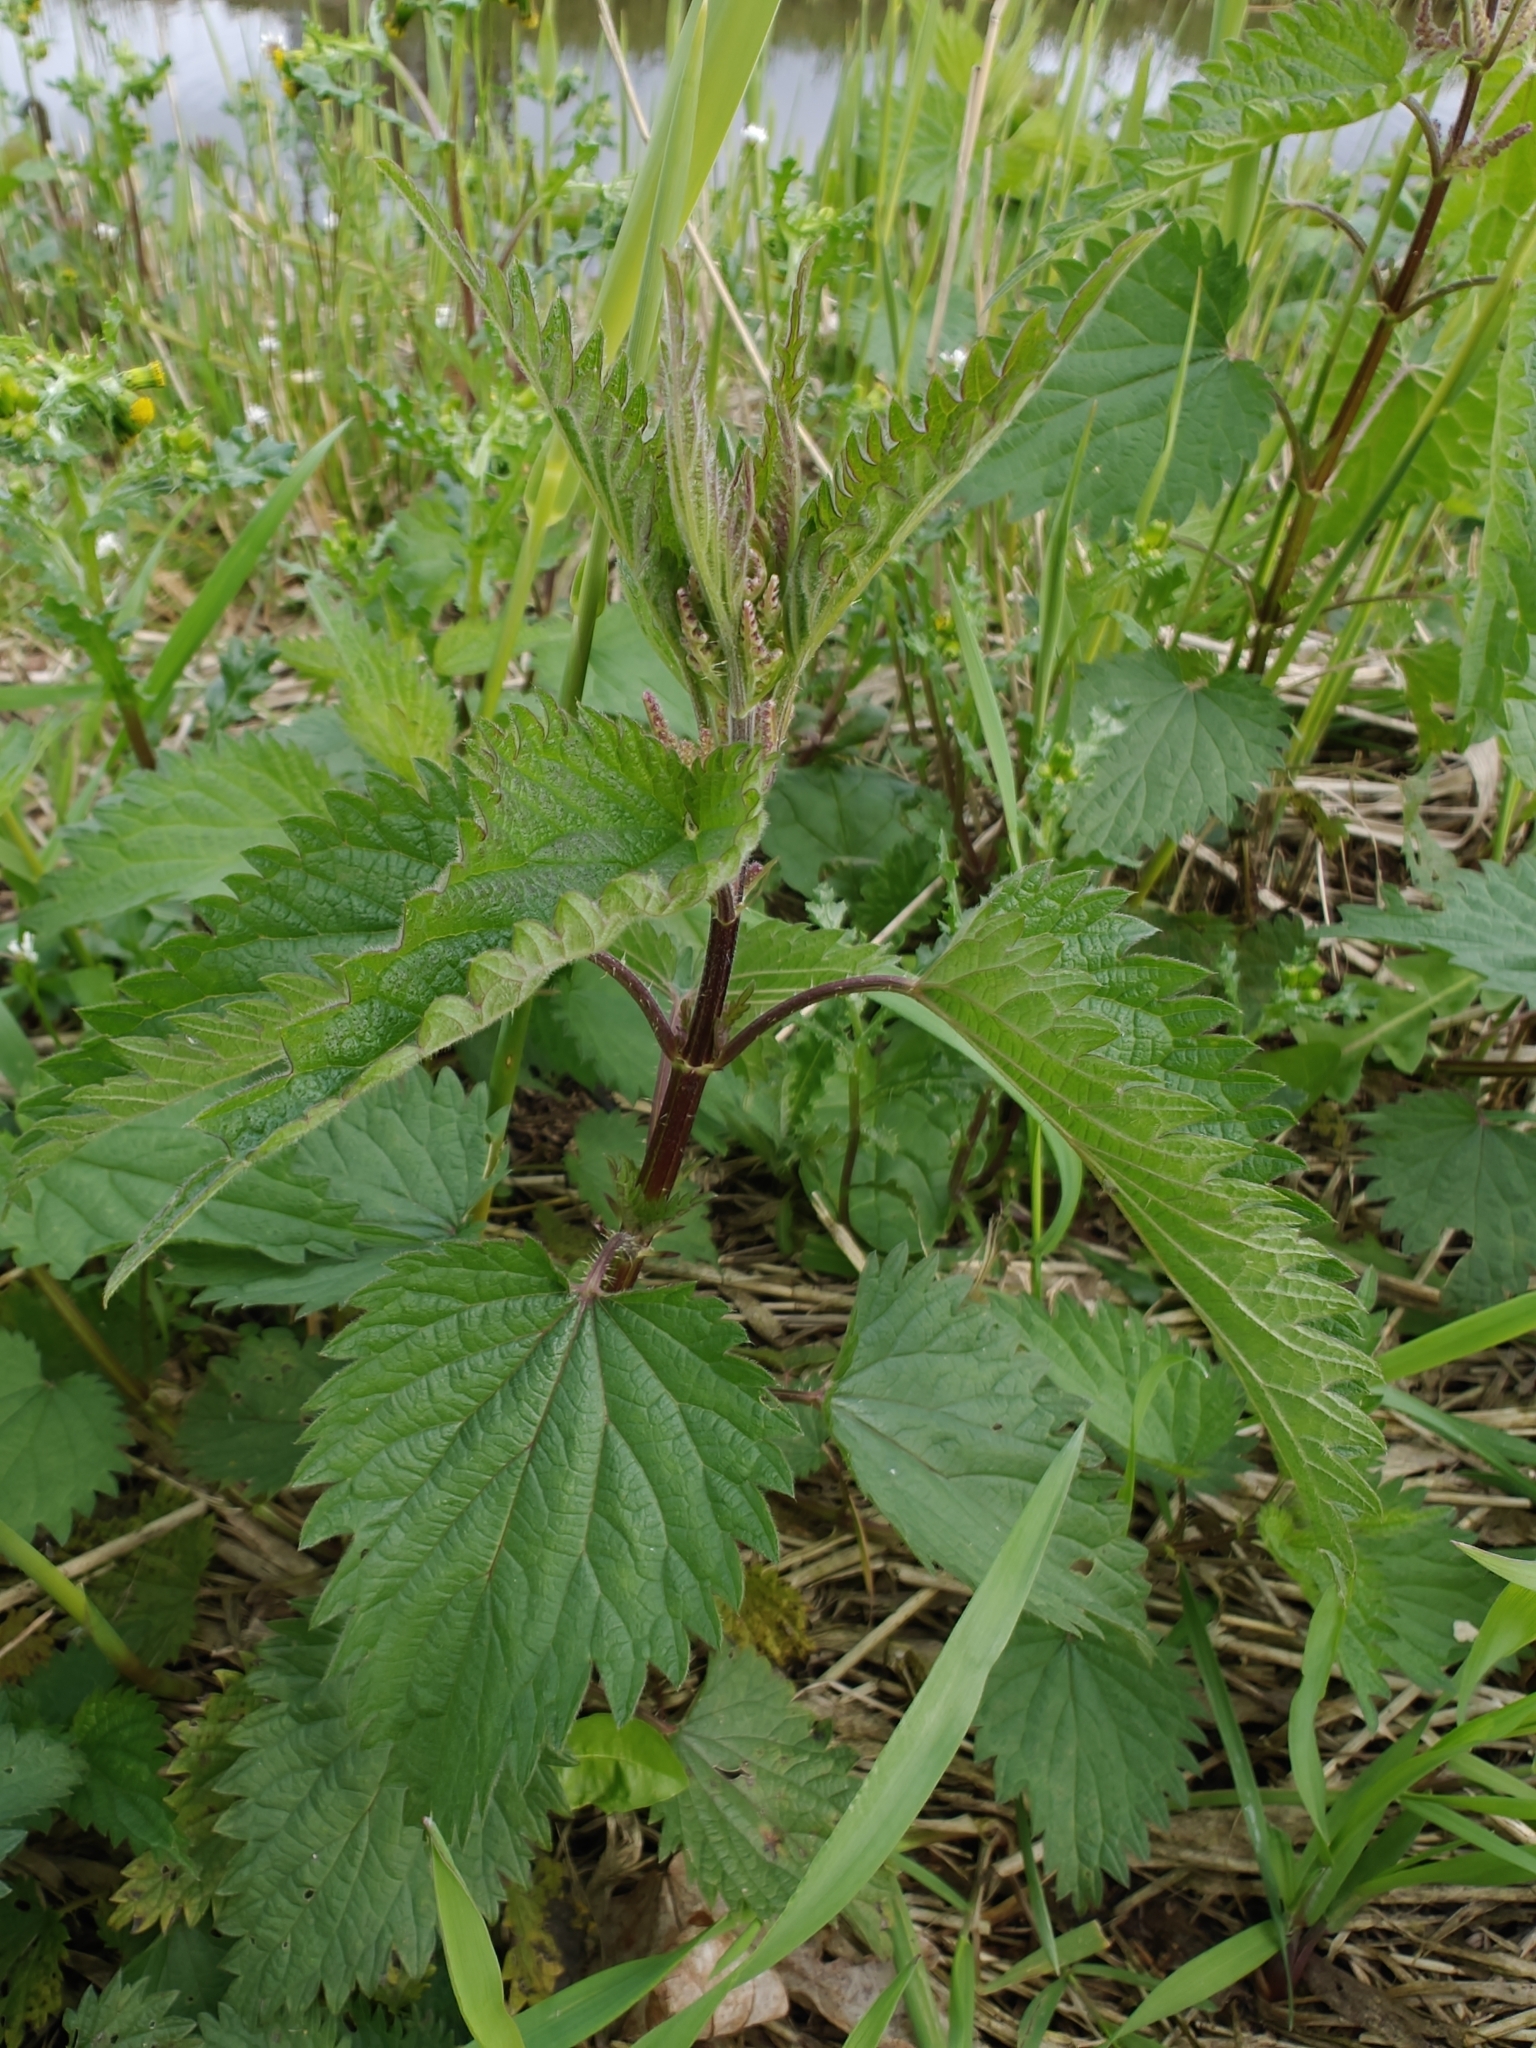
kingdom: Plantae
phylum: Tracheophyta
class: Magnoliopsida
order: Rosales
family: Urticaceae
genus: Urtica
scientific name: Urtica dioica
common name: Common nettle
